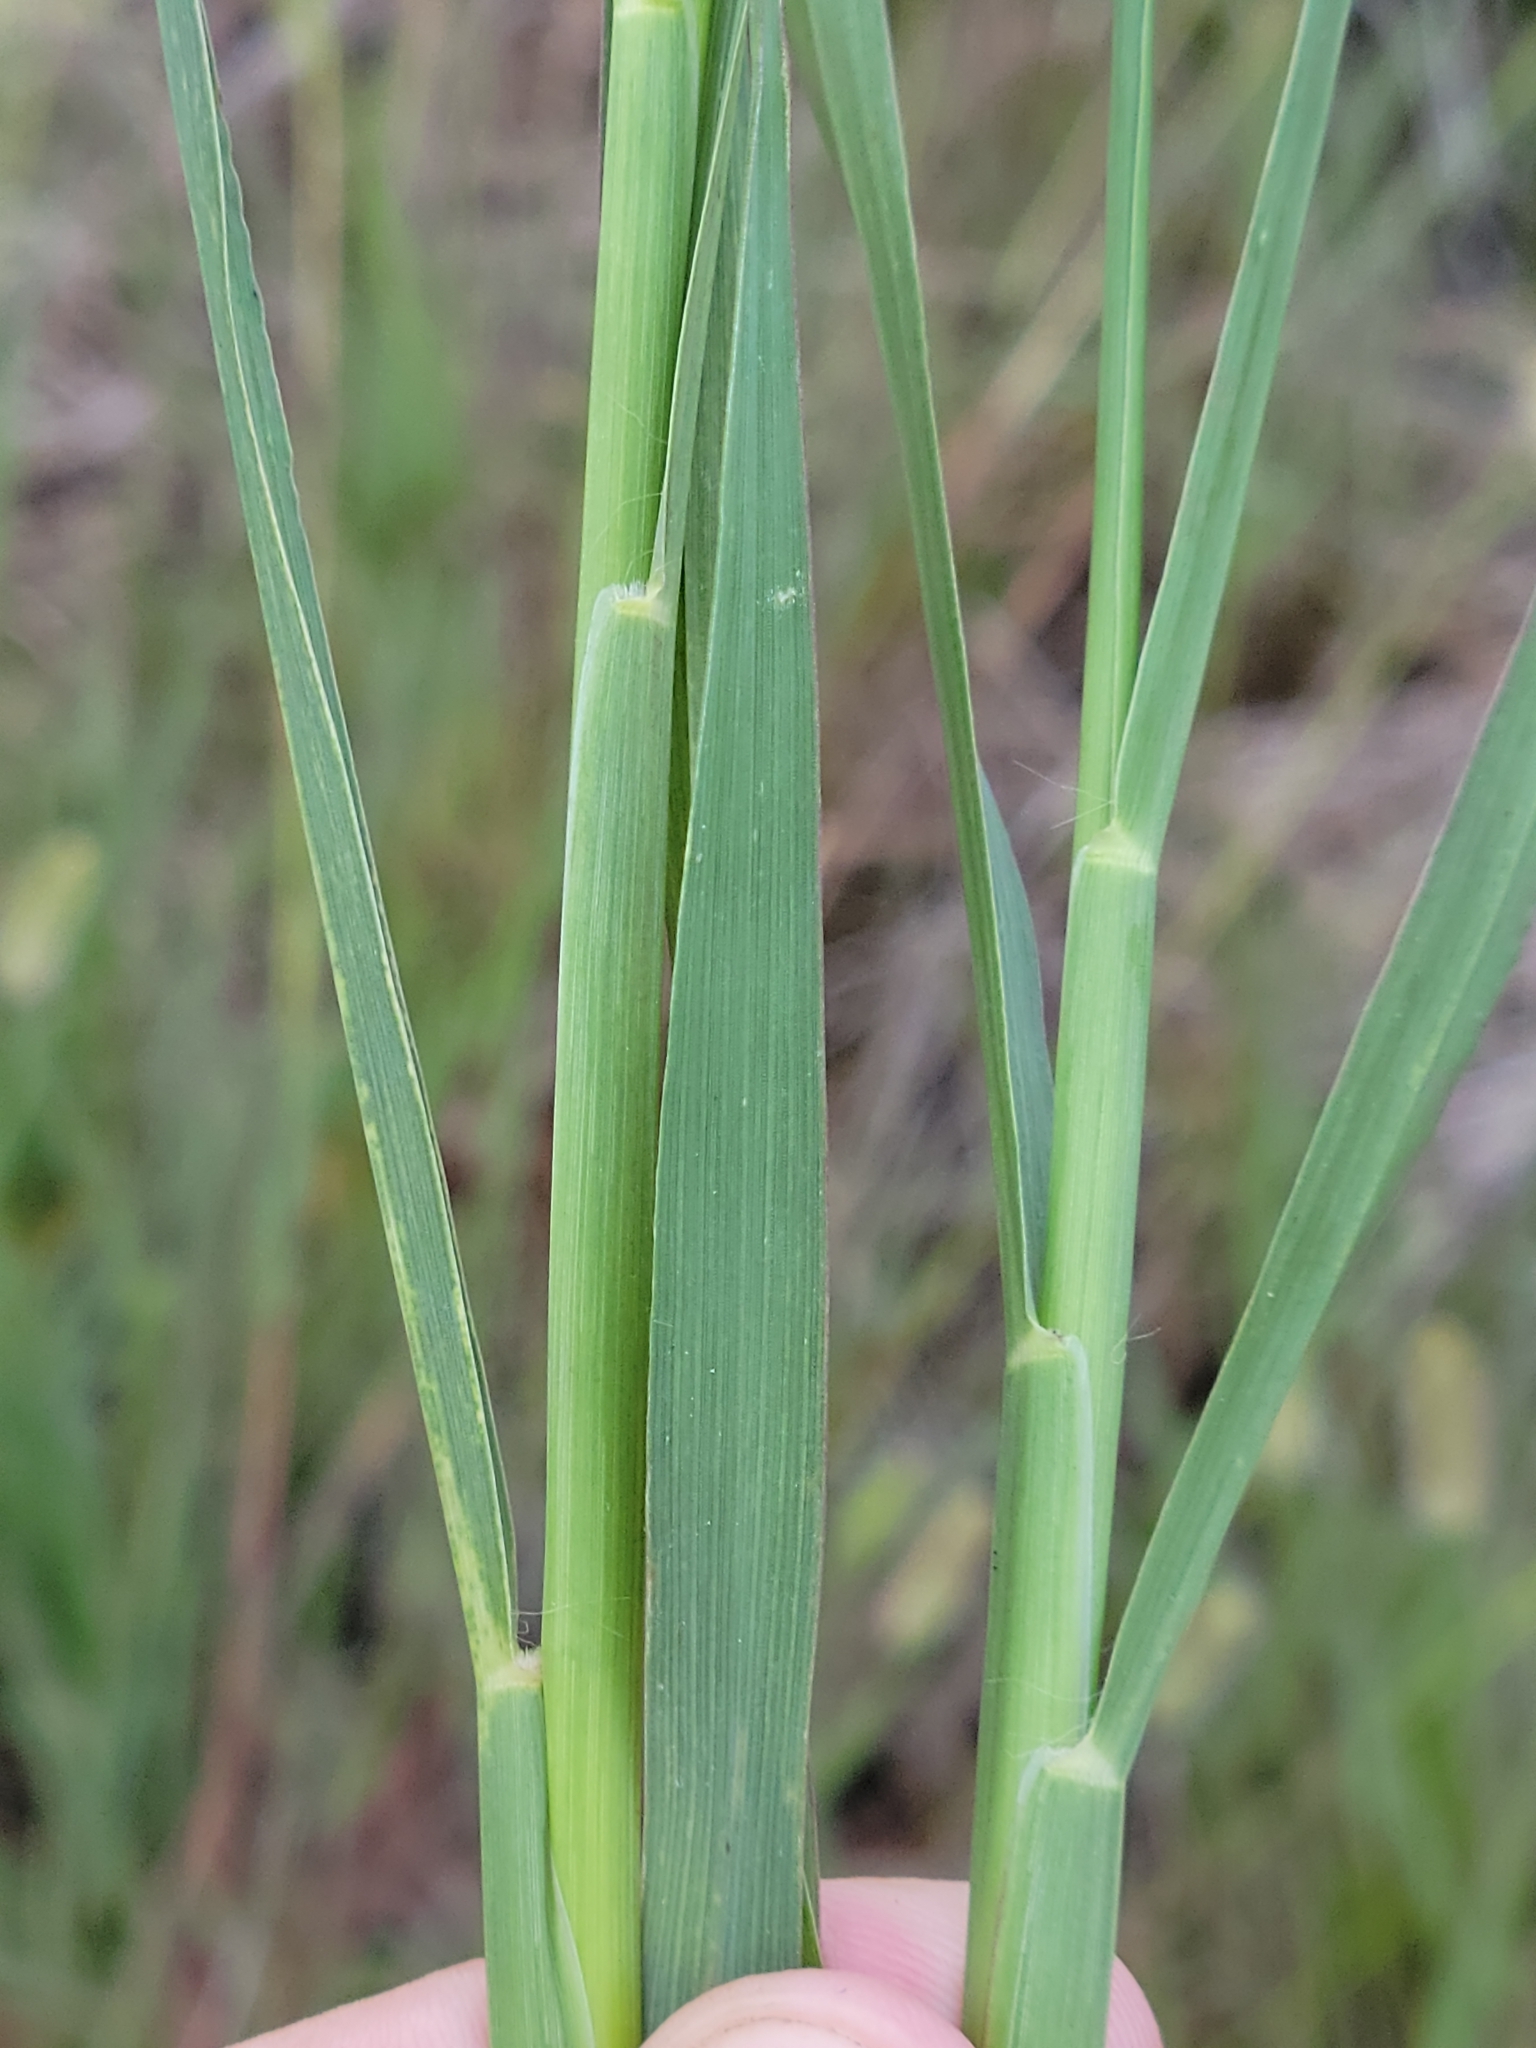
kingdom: Plantae
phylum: Tracheophyta
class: Liliopsida
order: Poales
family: Poaceae
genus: Setaria
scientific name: Setaria parviflora
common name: Knotroot bristle-grass
